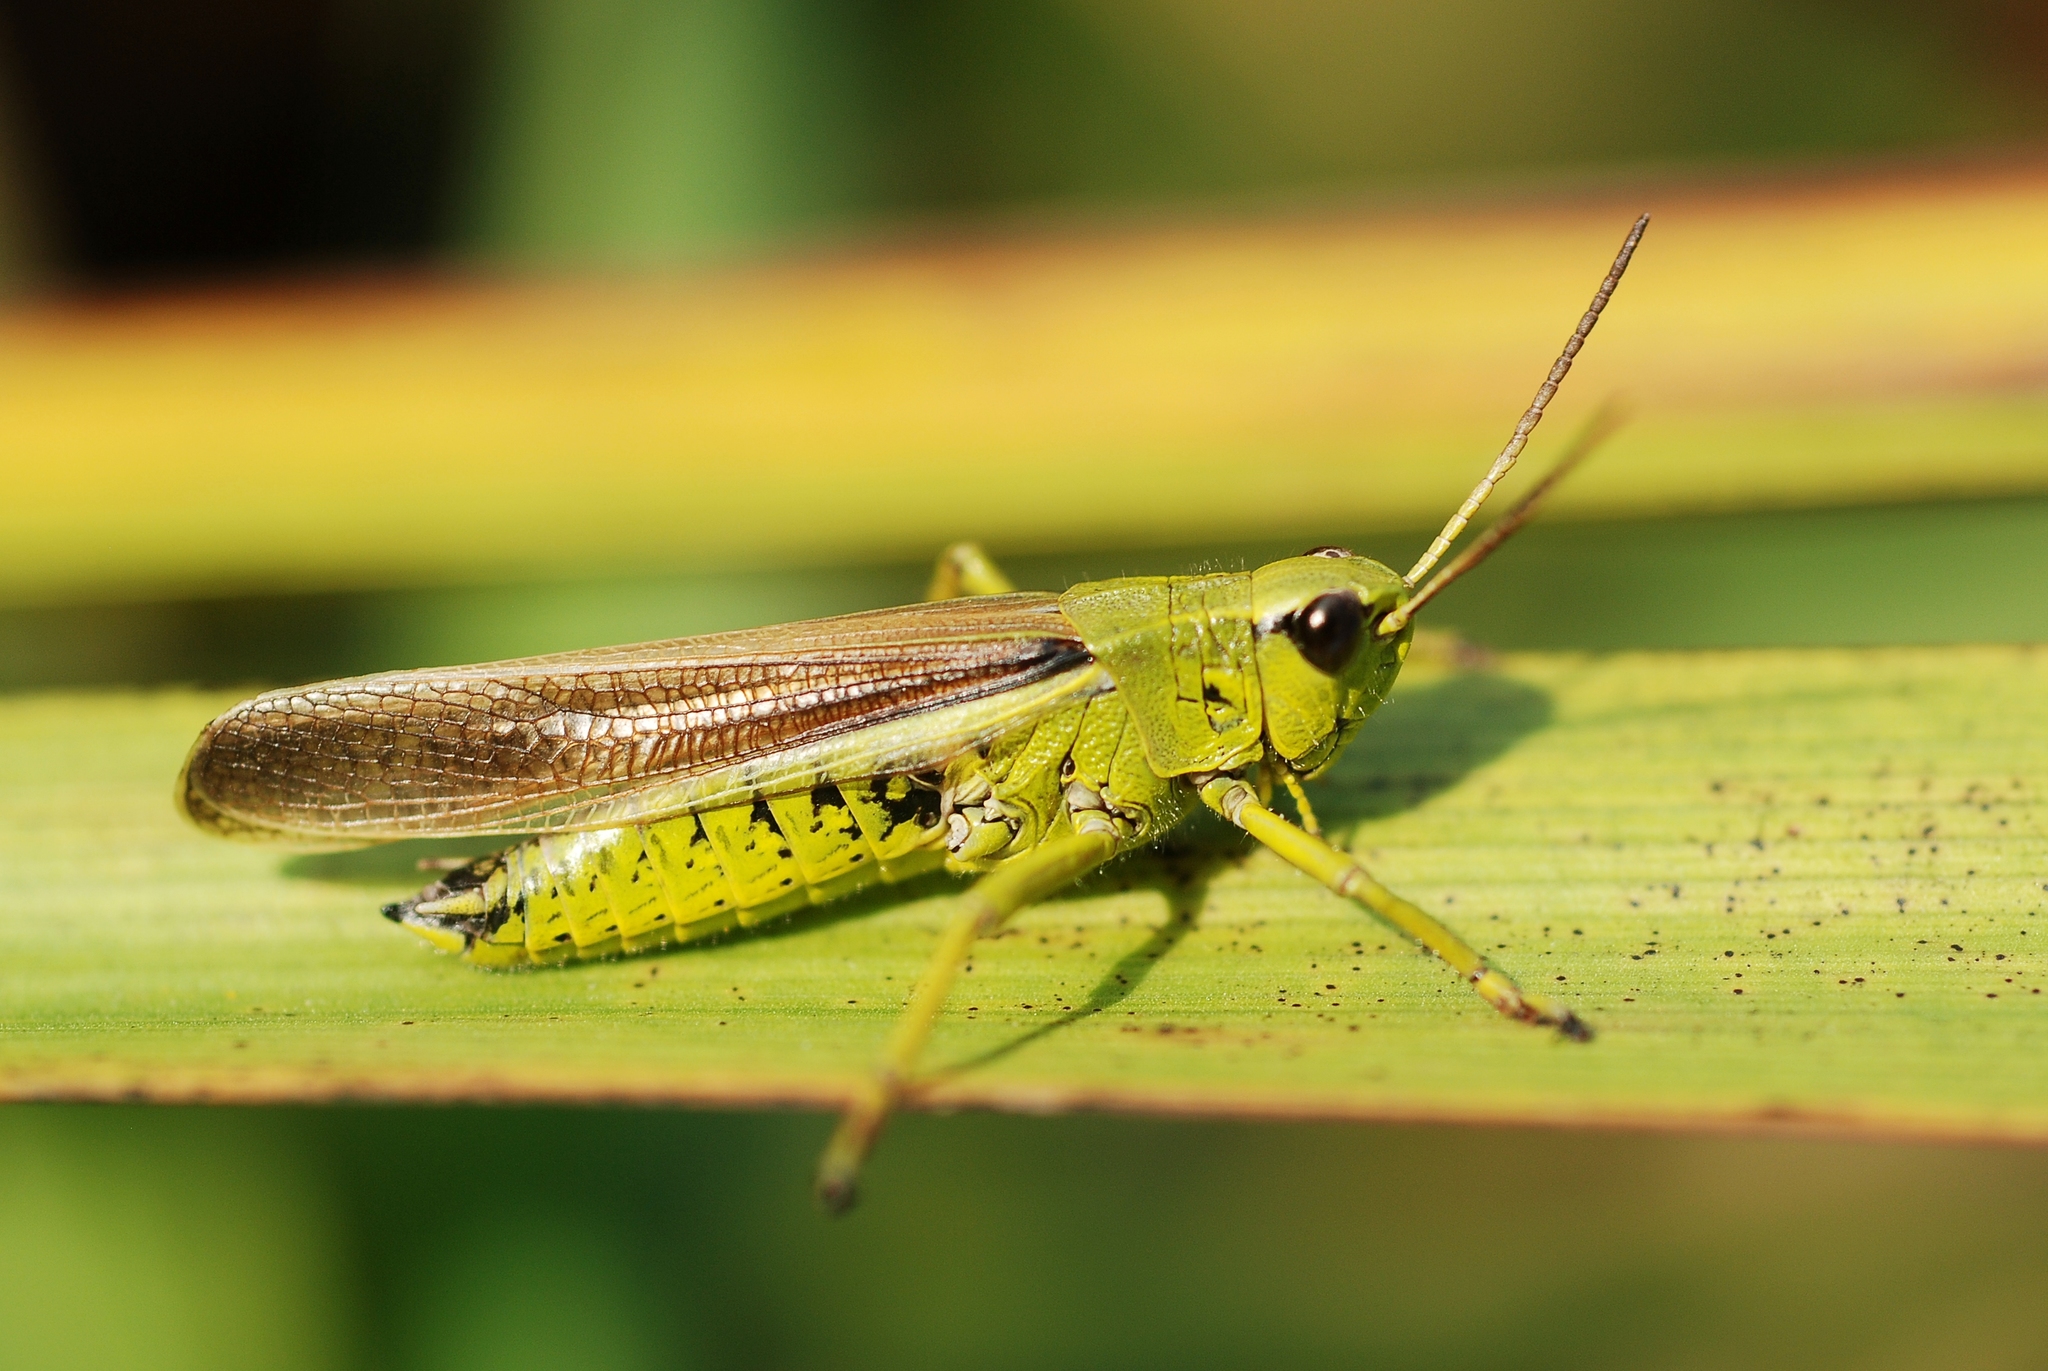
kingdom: Animalia
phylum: Arthropoda
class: Insecta
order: Orthoptera
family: Acrididae
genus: Stethophyma
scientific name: Stethophyma grossum
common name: Large marsh grasshopper
